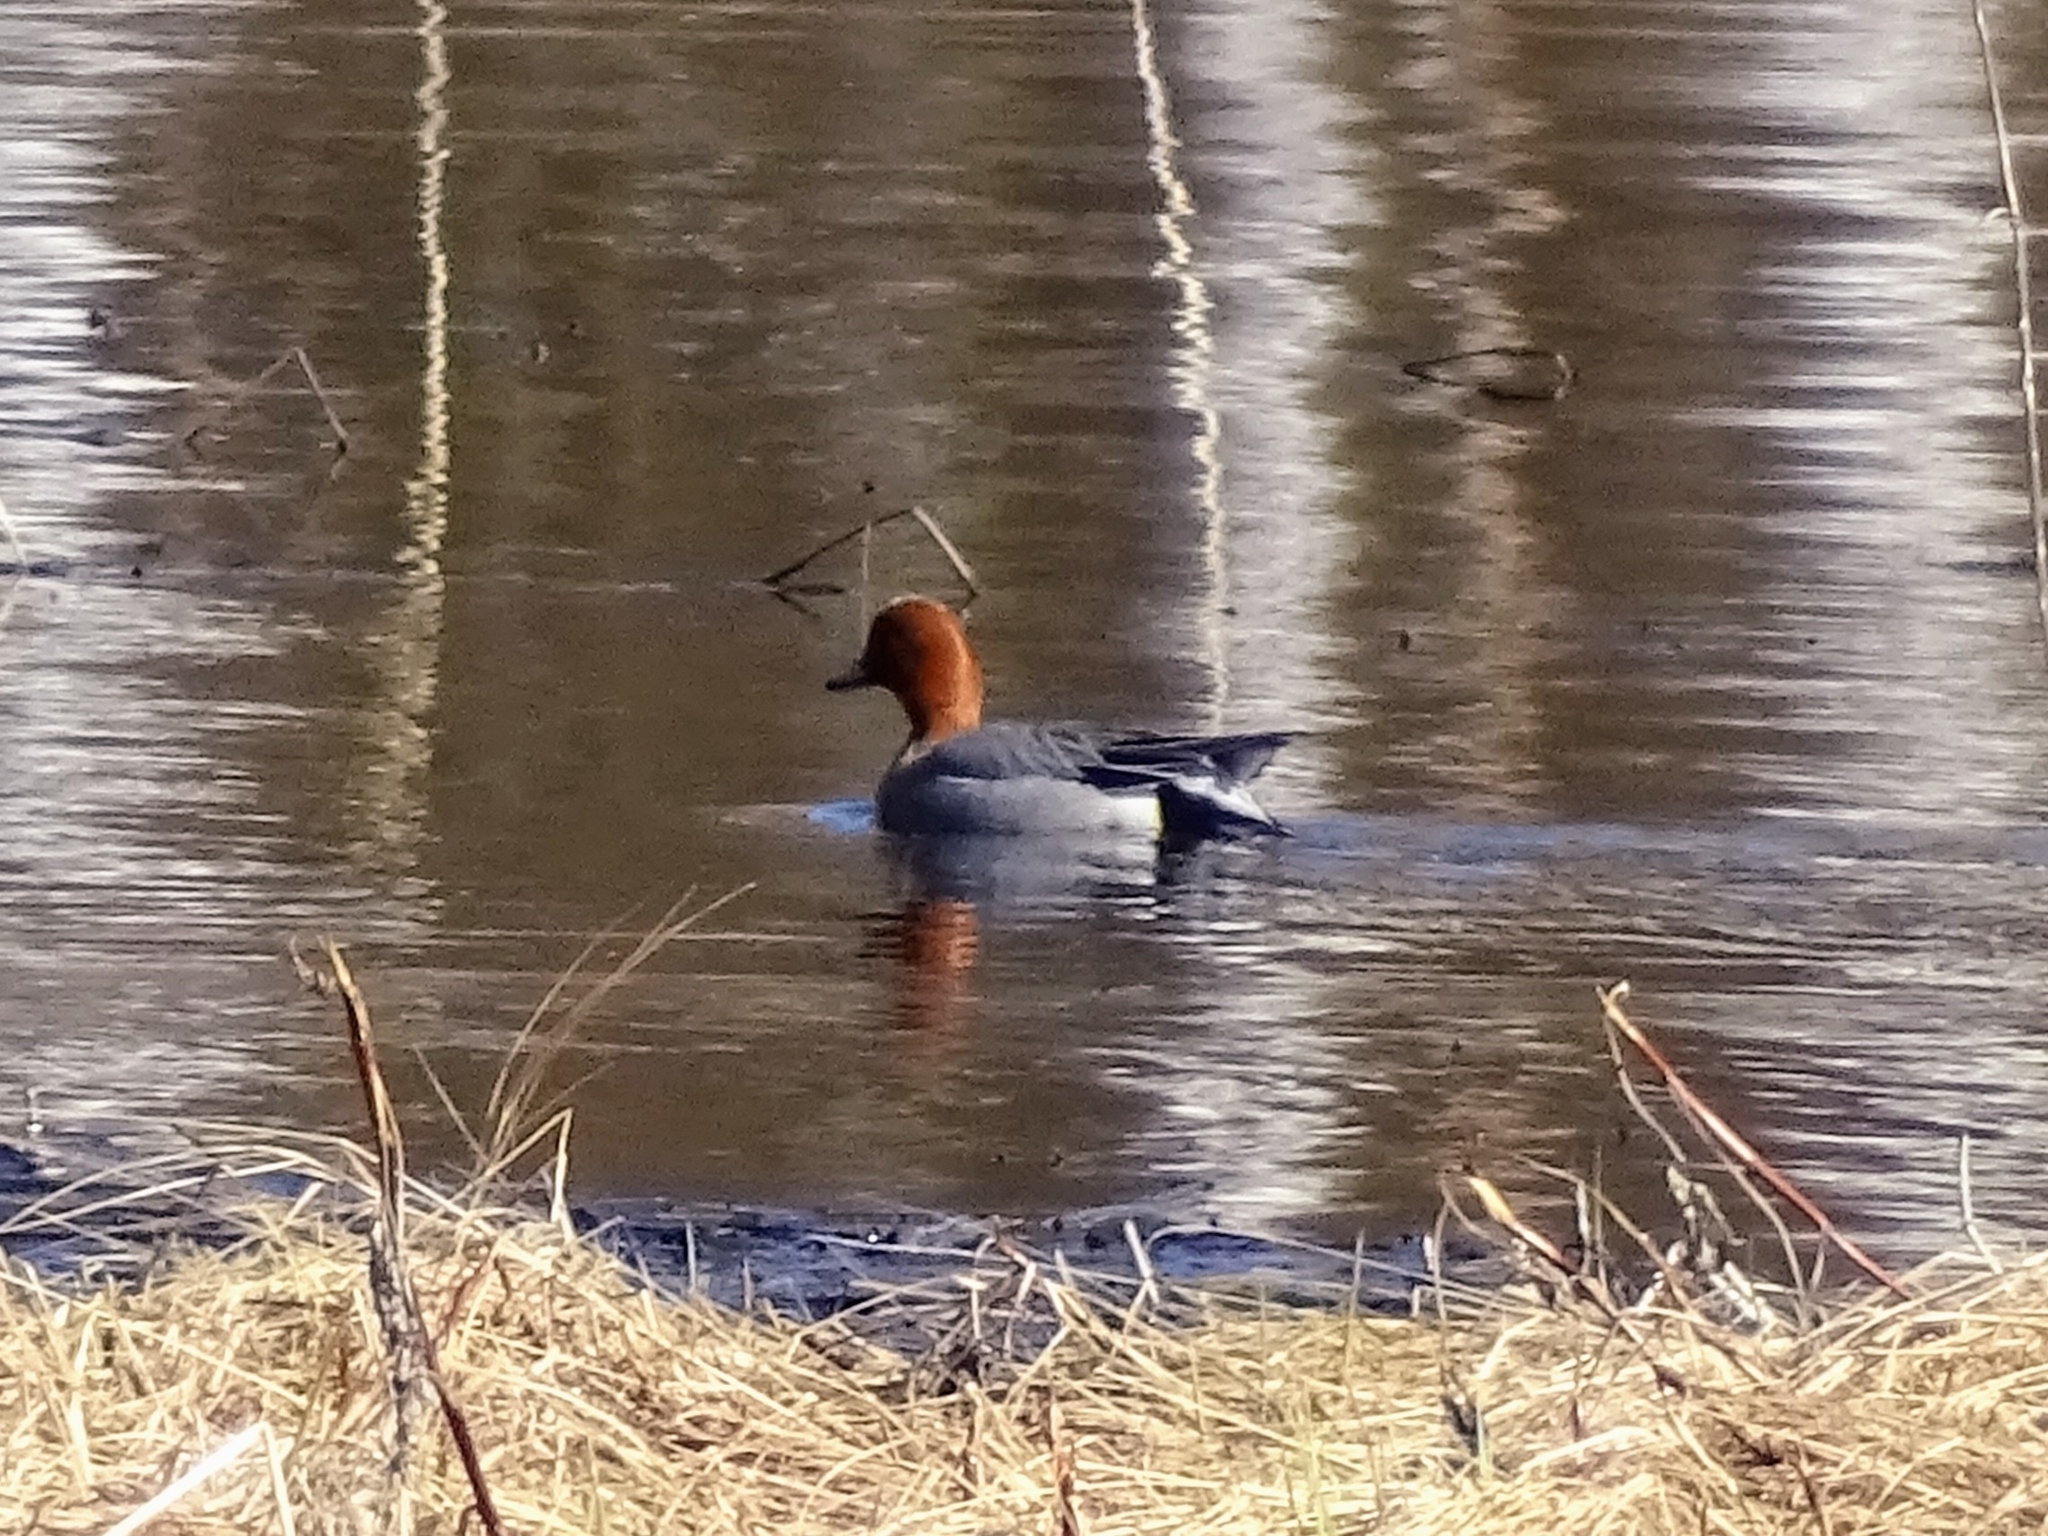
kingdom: Animalia
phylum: Chordata
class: Aves
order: Anseriformes
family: Anatidae
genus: Mareca
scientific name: Mareca penelope
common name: Eurasian wigeon
